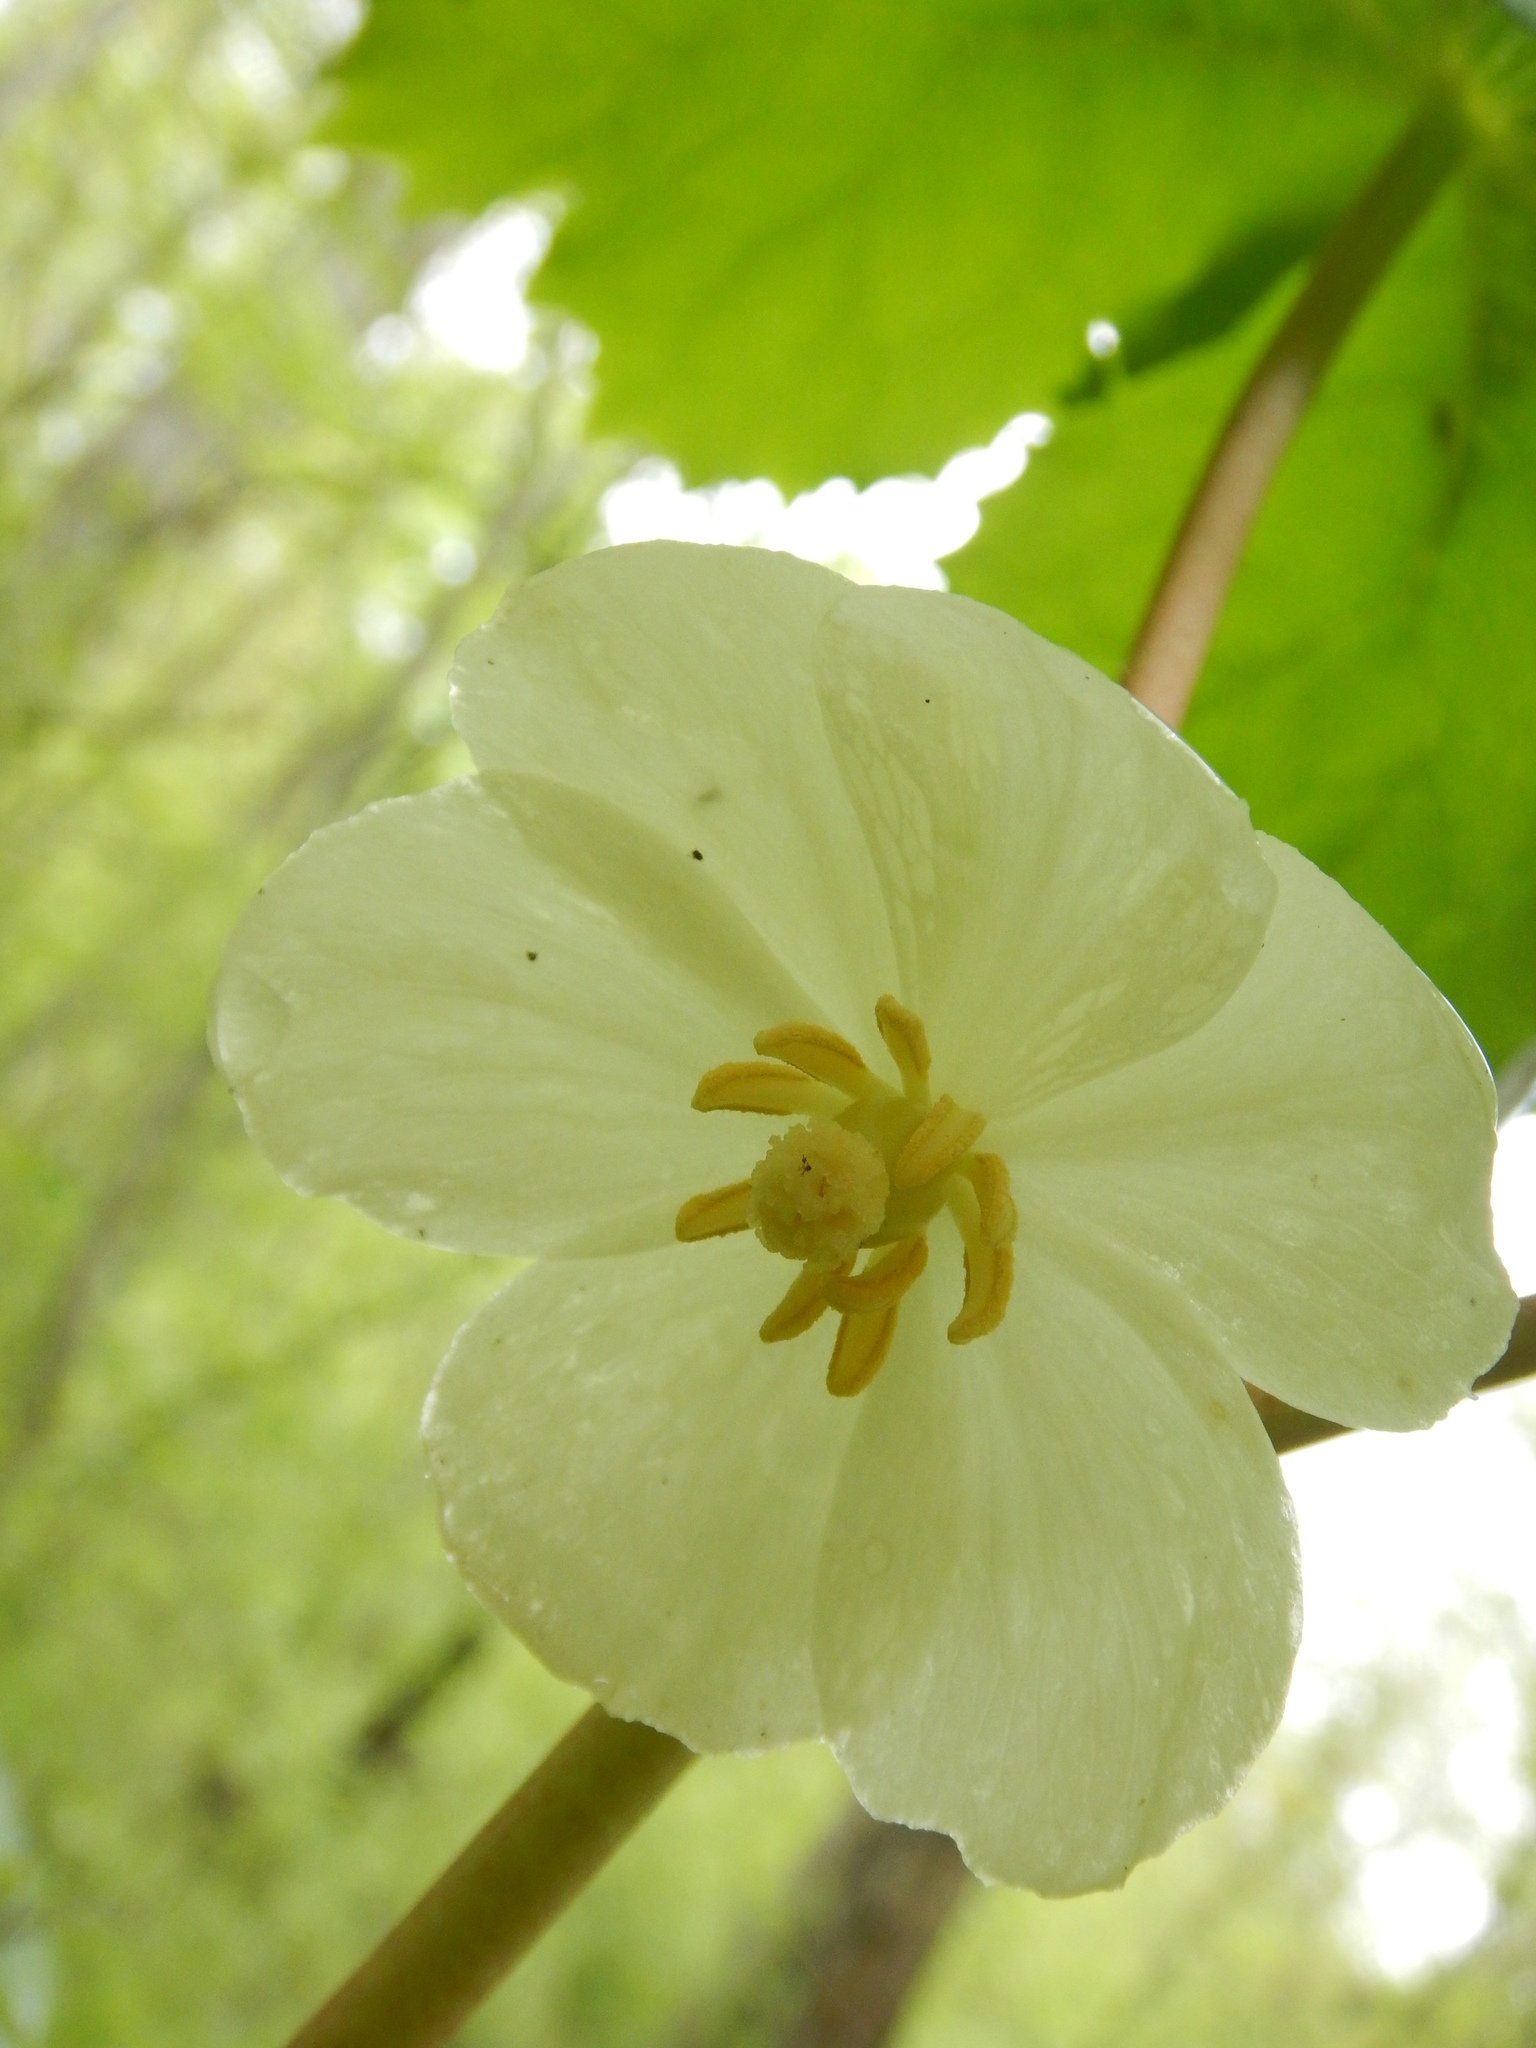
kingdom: Plantae
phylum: Tracheophyta
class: Magnoliopsida
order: Ranunculales
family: Berberidaceae
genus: Podophyllum
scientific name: Podophyllum peltatum
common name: Wild mandrake
